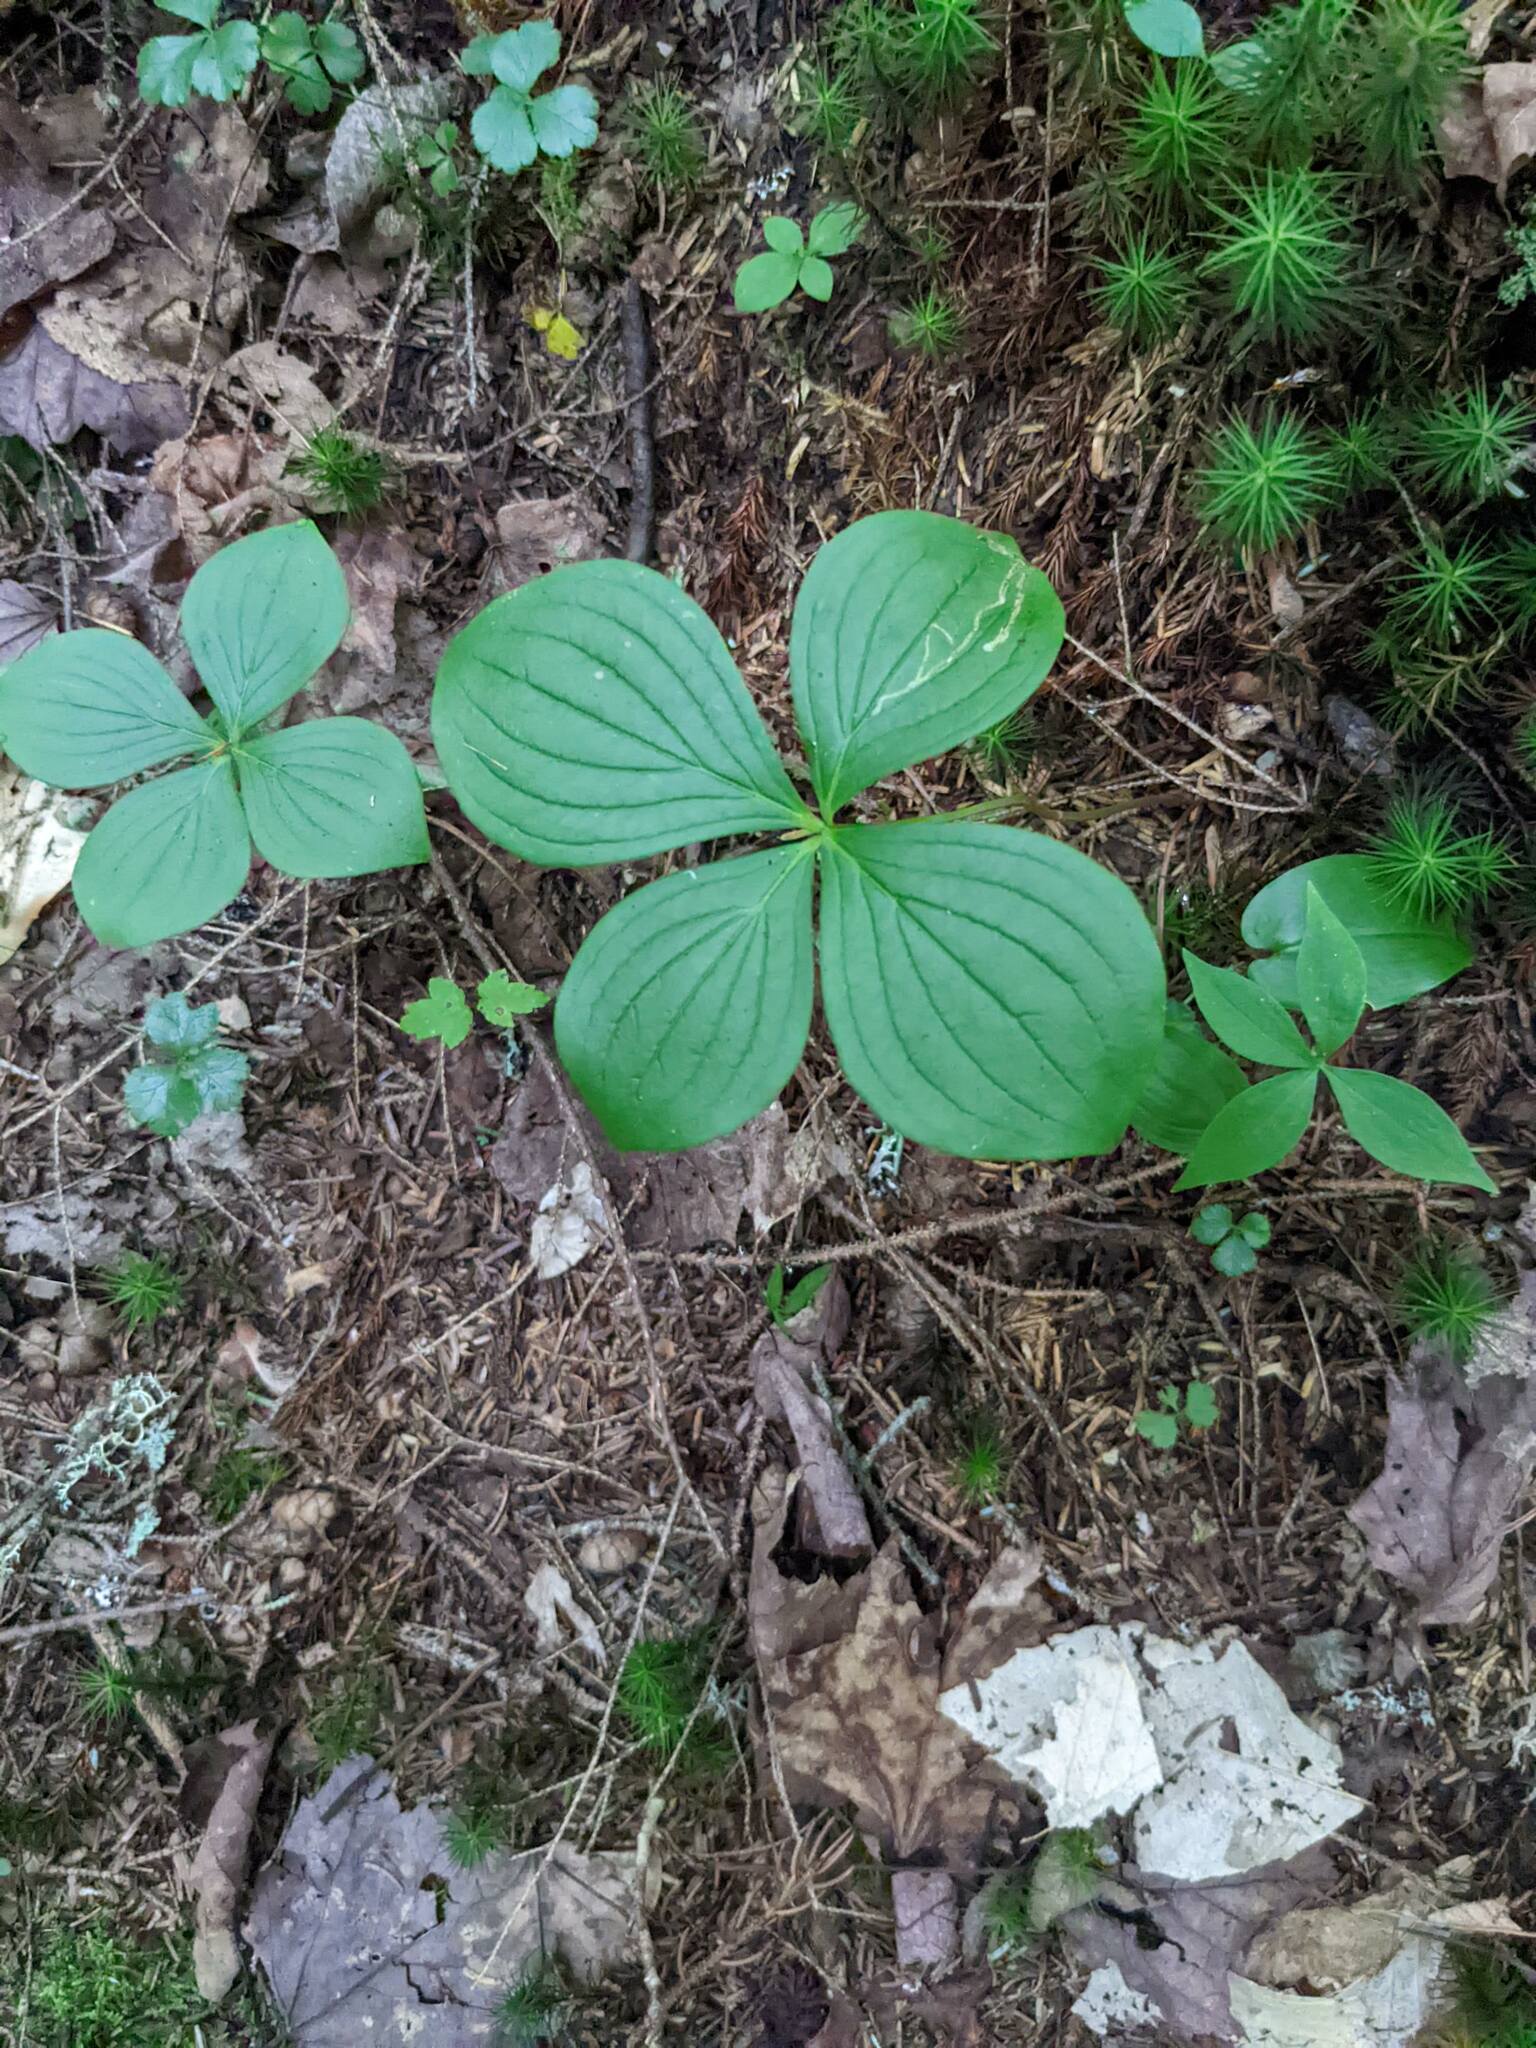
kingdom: Plantae
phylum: Tracheophyta
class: Magnoliopsida
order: Cornales
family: Cornaceae
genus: Cornus
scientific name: Cornus canadensis
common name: Creeping dogwood
